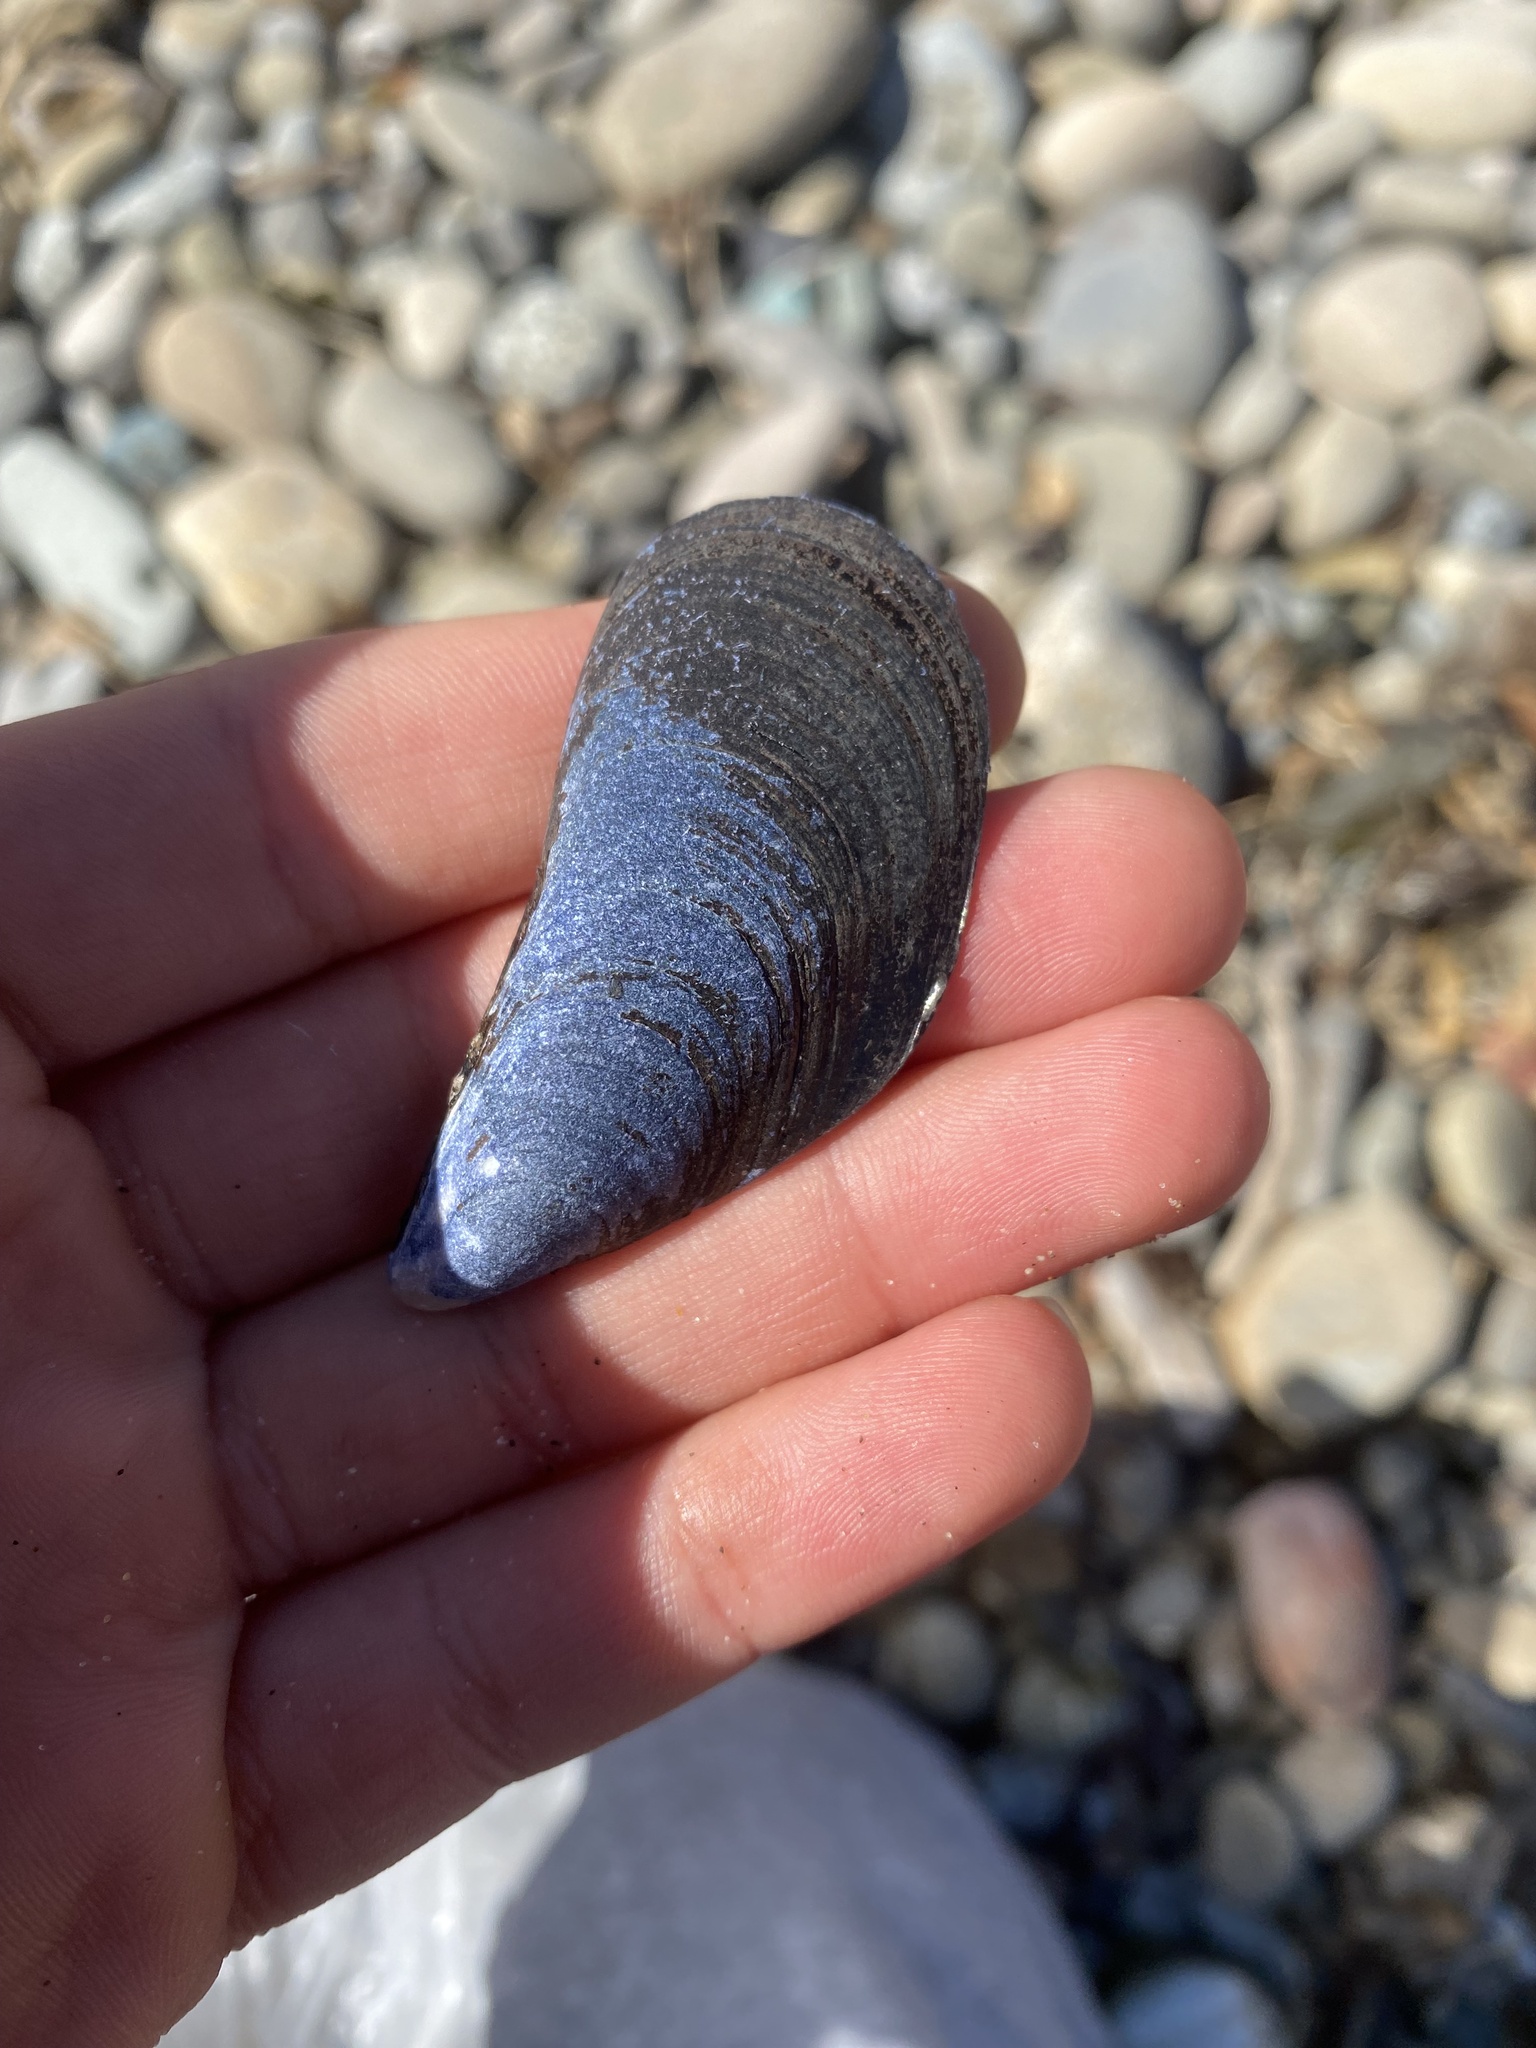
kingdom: Animalia
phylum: Mollusca
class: Bivalvia
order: Mytilida
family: Mytilidae
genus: Mytilus
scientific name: Mytilus
